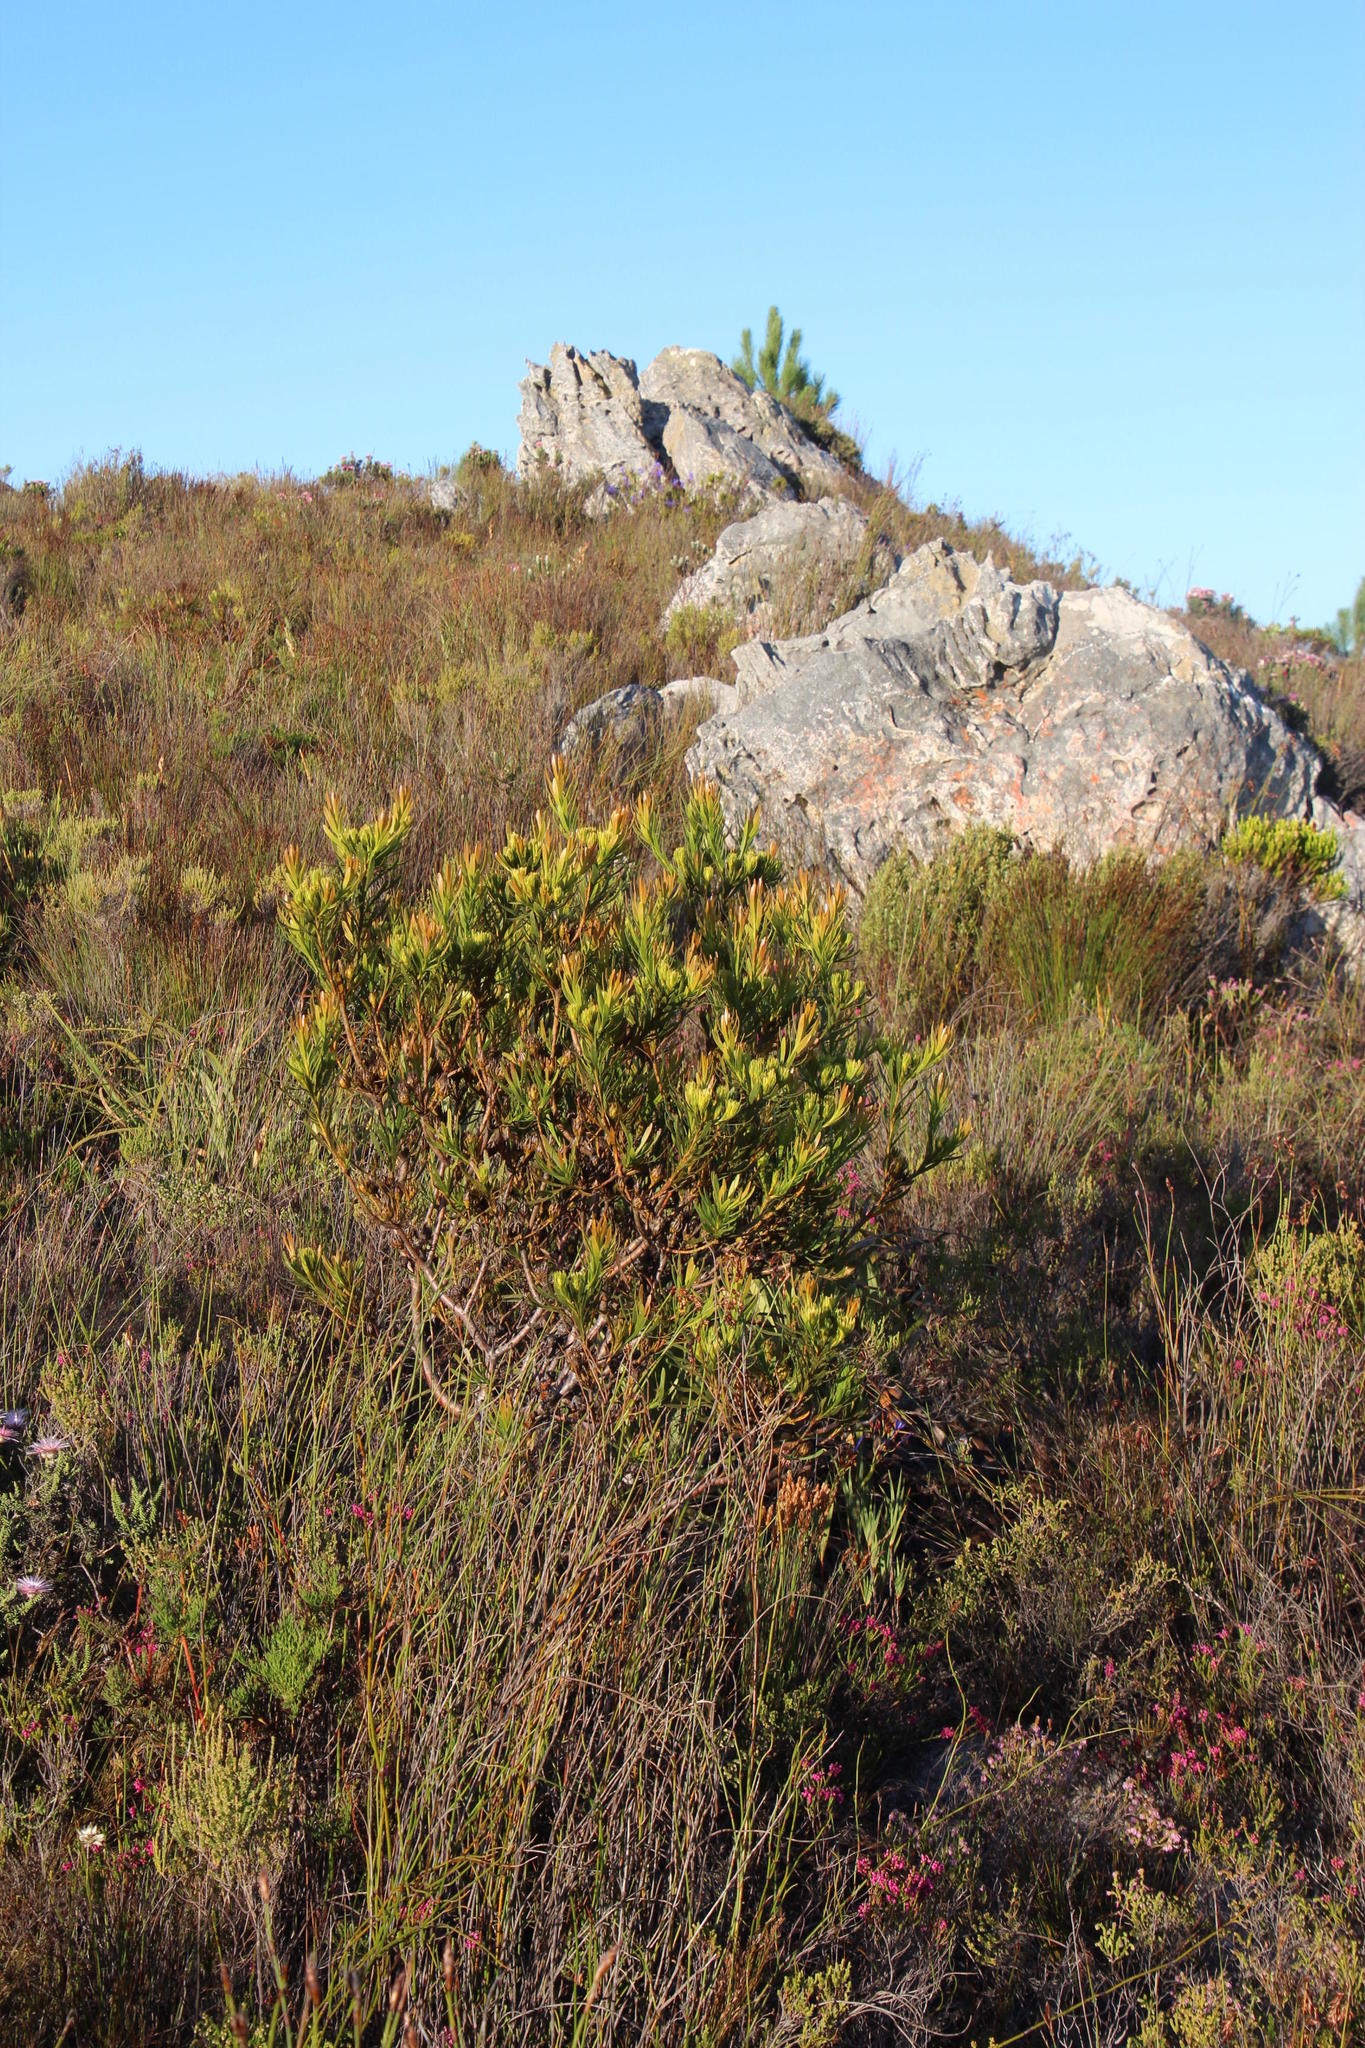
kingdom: Plantae
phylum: Tracheophyta
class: Magnoliopsida
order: Proteales
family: Proteaceae
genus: Leucospermum
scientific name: Leucospermum oleifolium
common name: Matches
